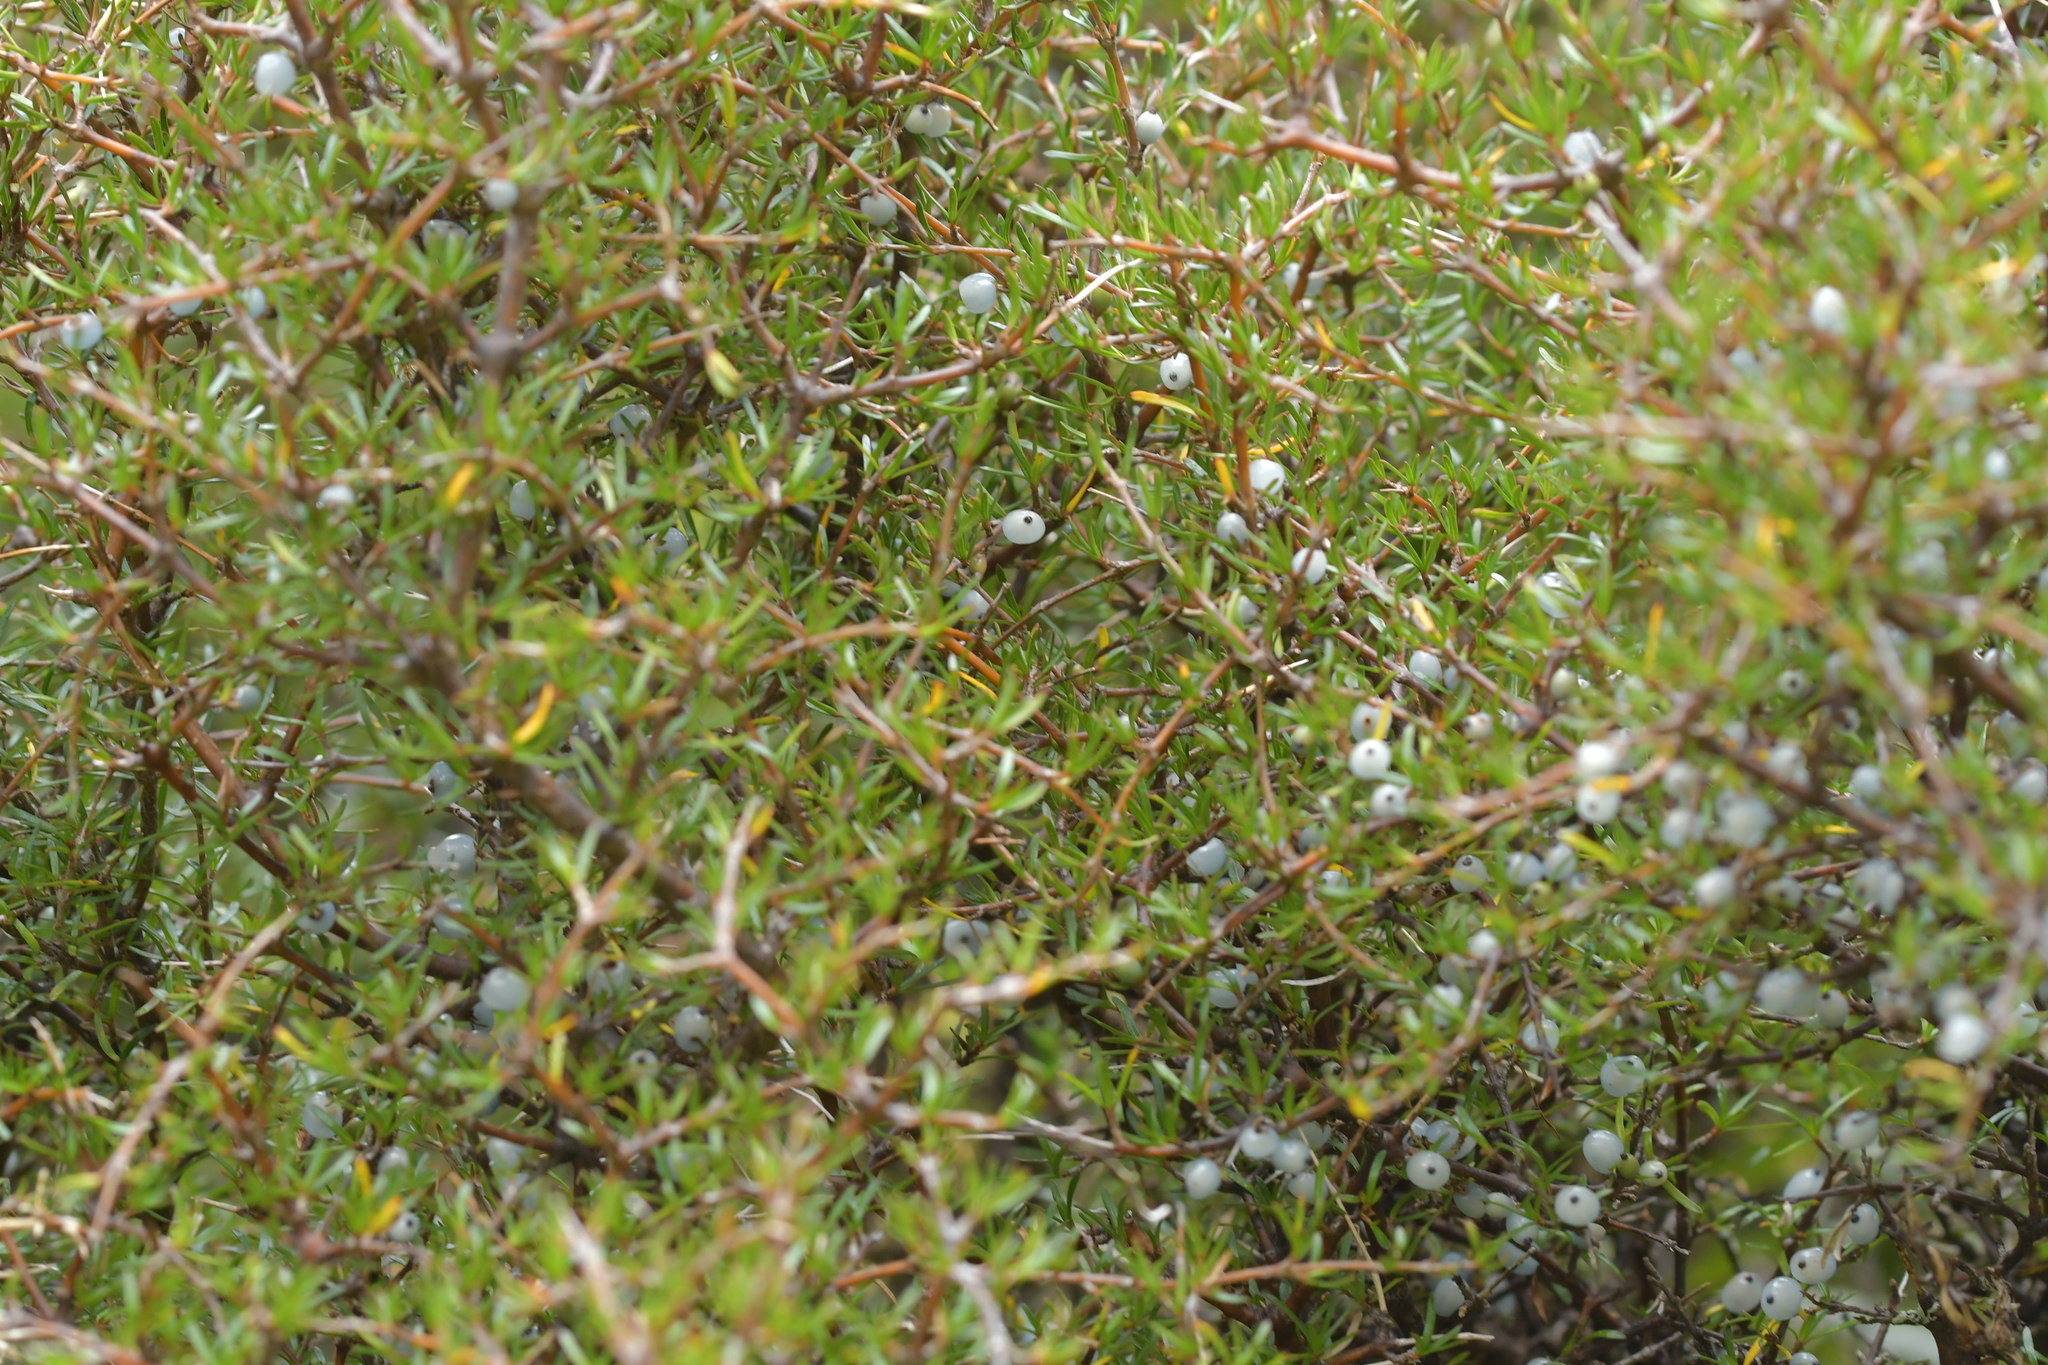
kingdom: Plantae
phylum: Tracheophyta
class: Magnoliopsida
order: Gentianales
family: Rubiaceae
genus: Coprosma
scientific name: Coprosma rugosa
